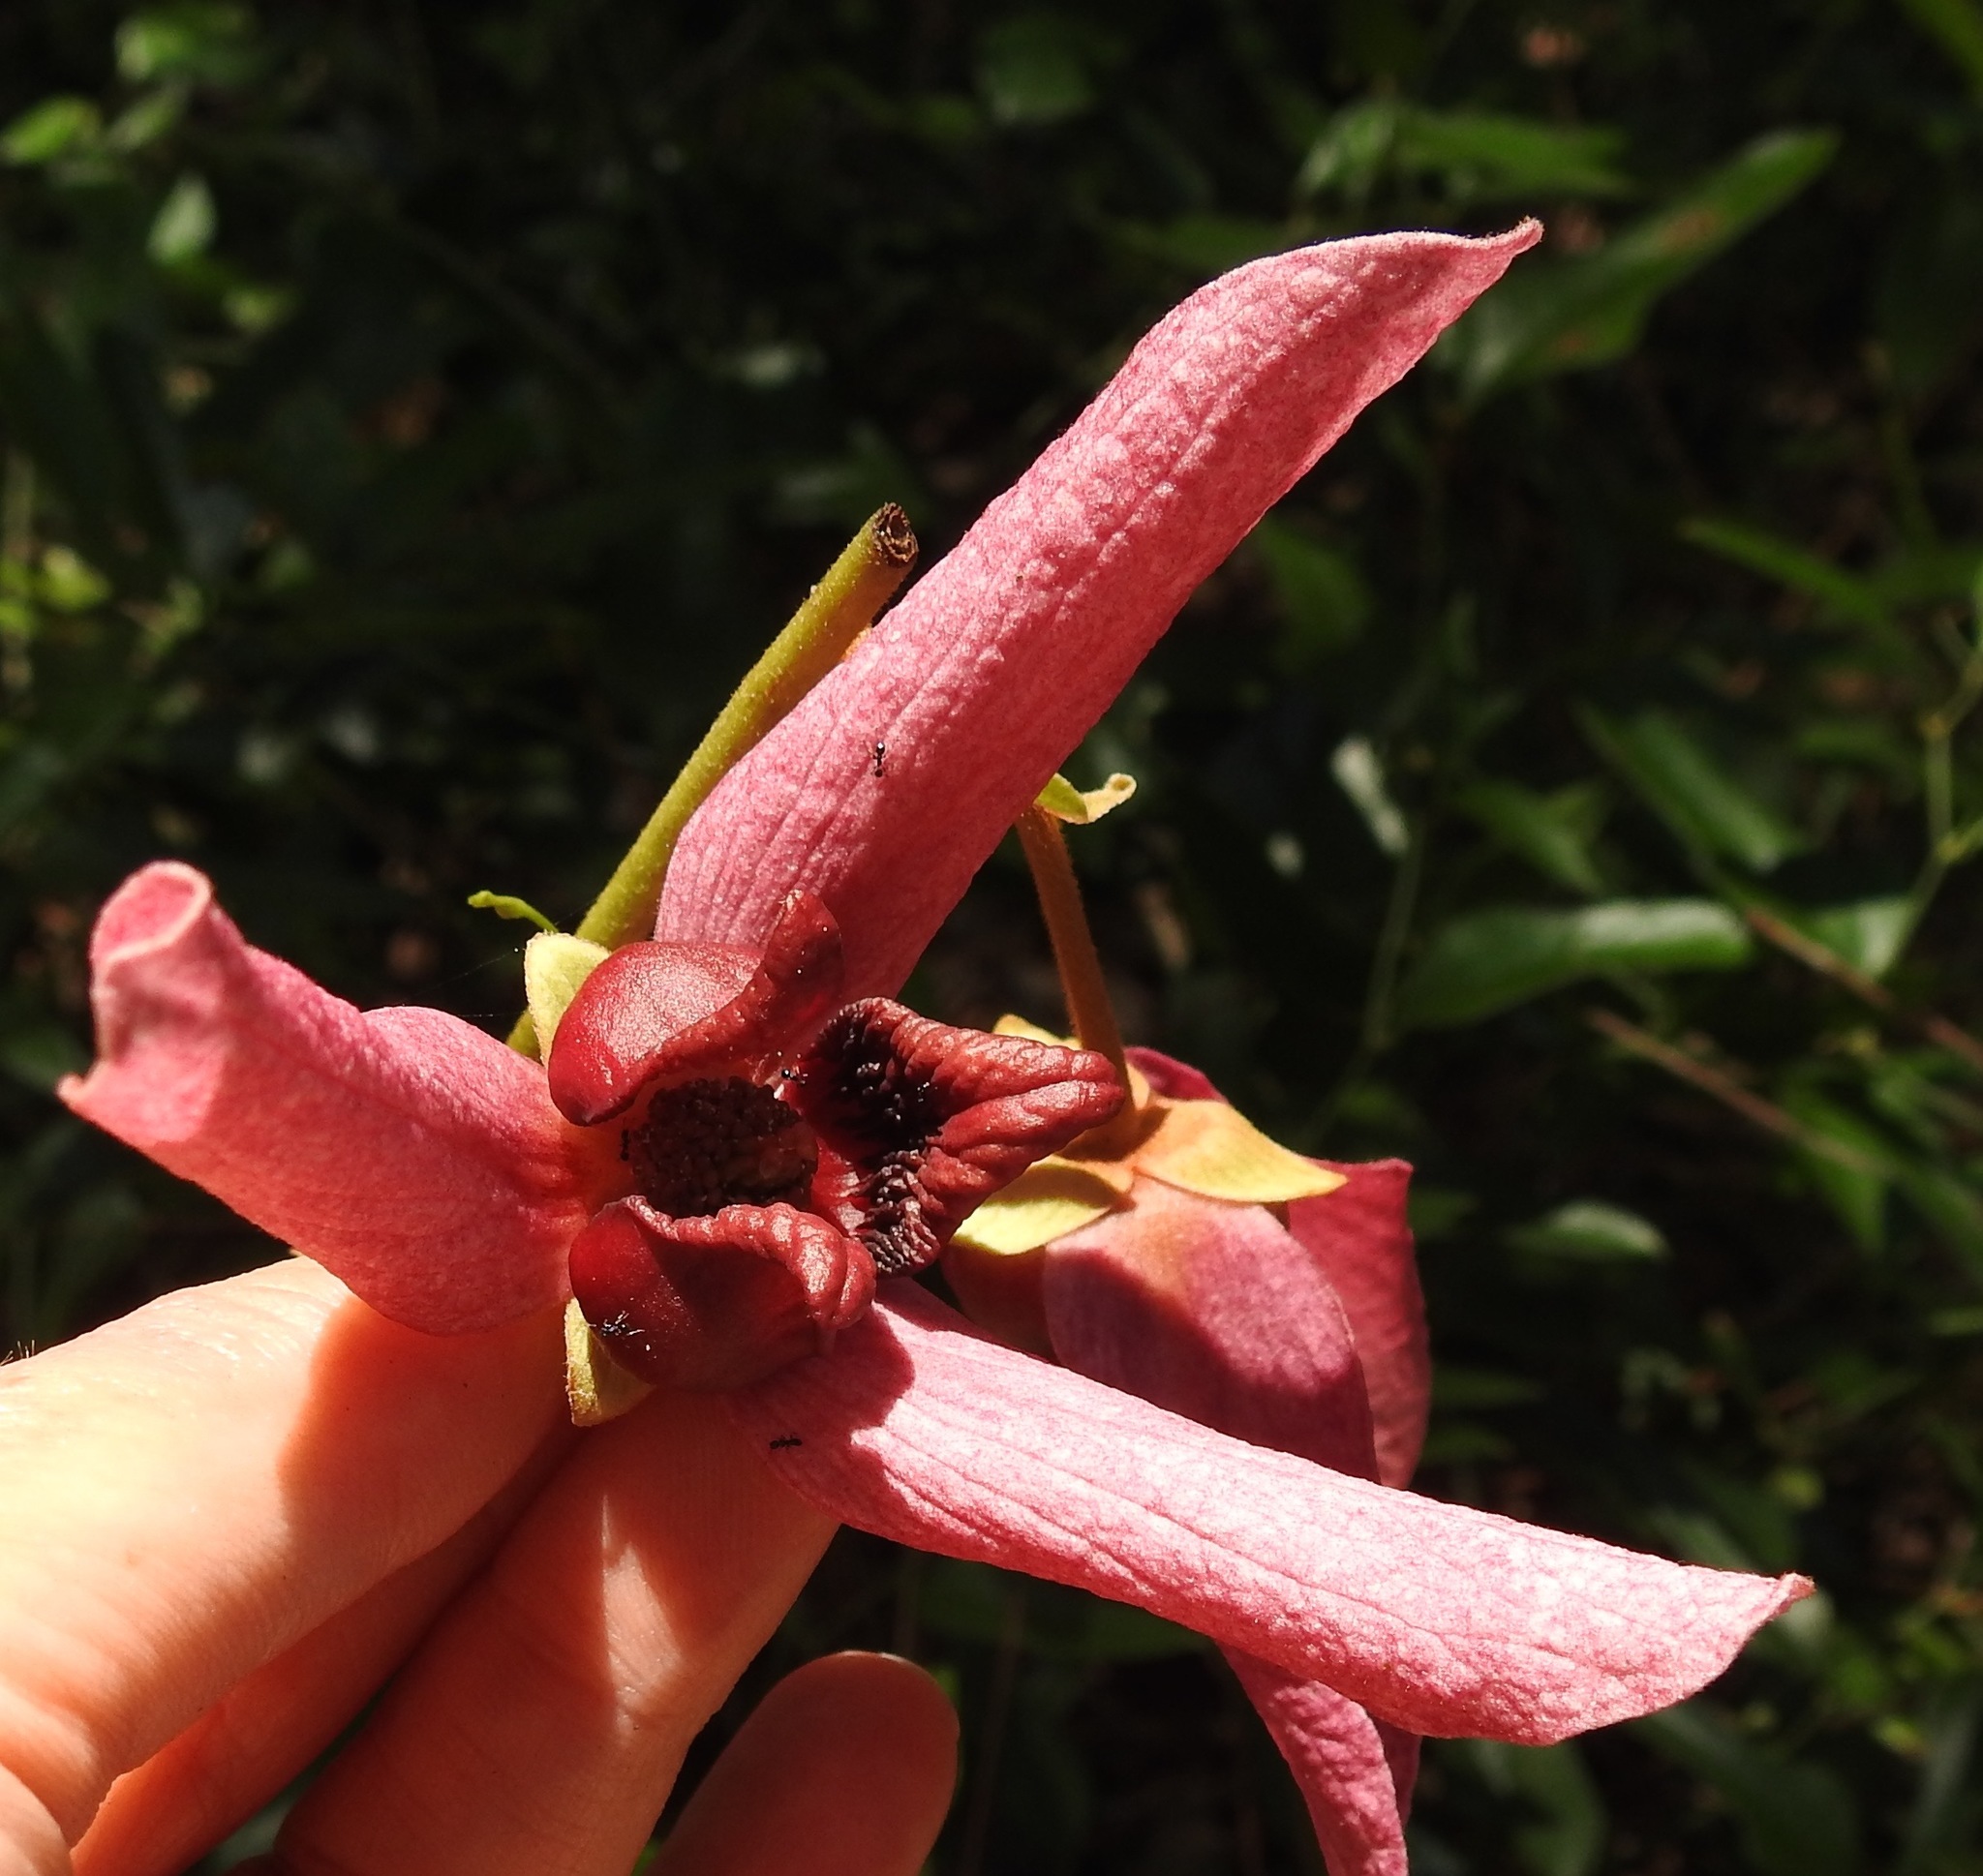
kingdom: Plantae
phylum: Tracheophyta
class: Magnoliopsida
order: Magnoliales
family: Annonaceae
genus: Asimina
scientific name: Asimina pygmaea
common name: Dwarf pawpaw
